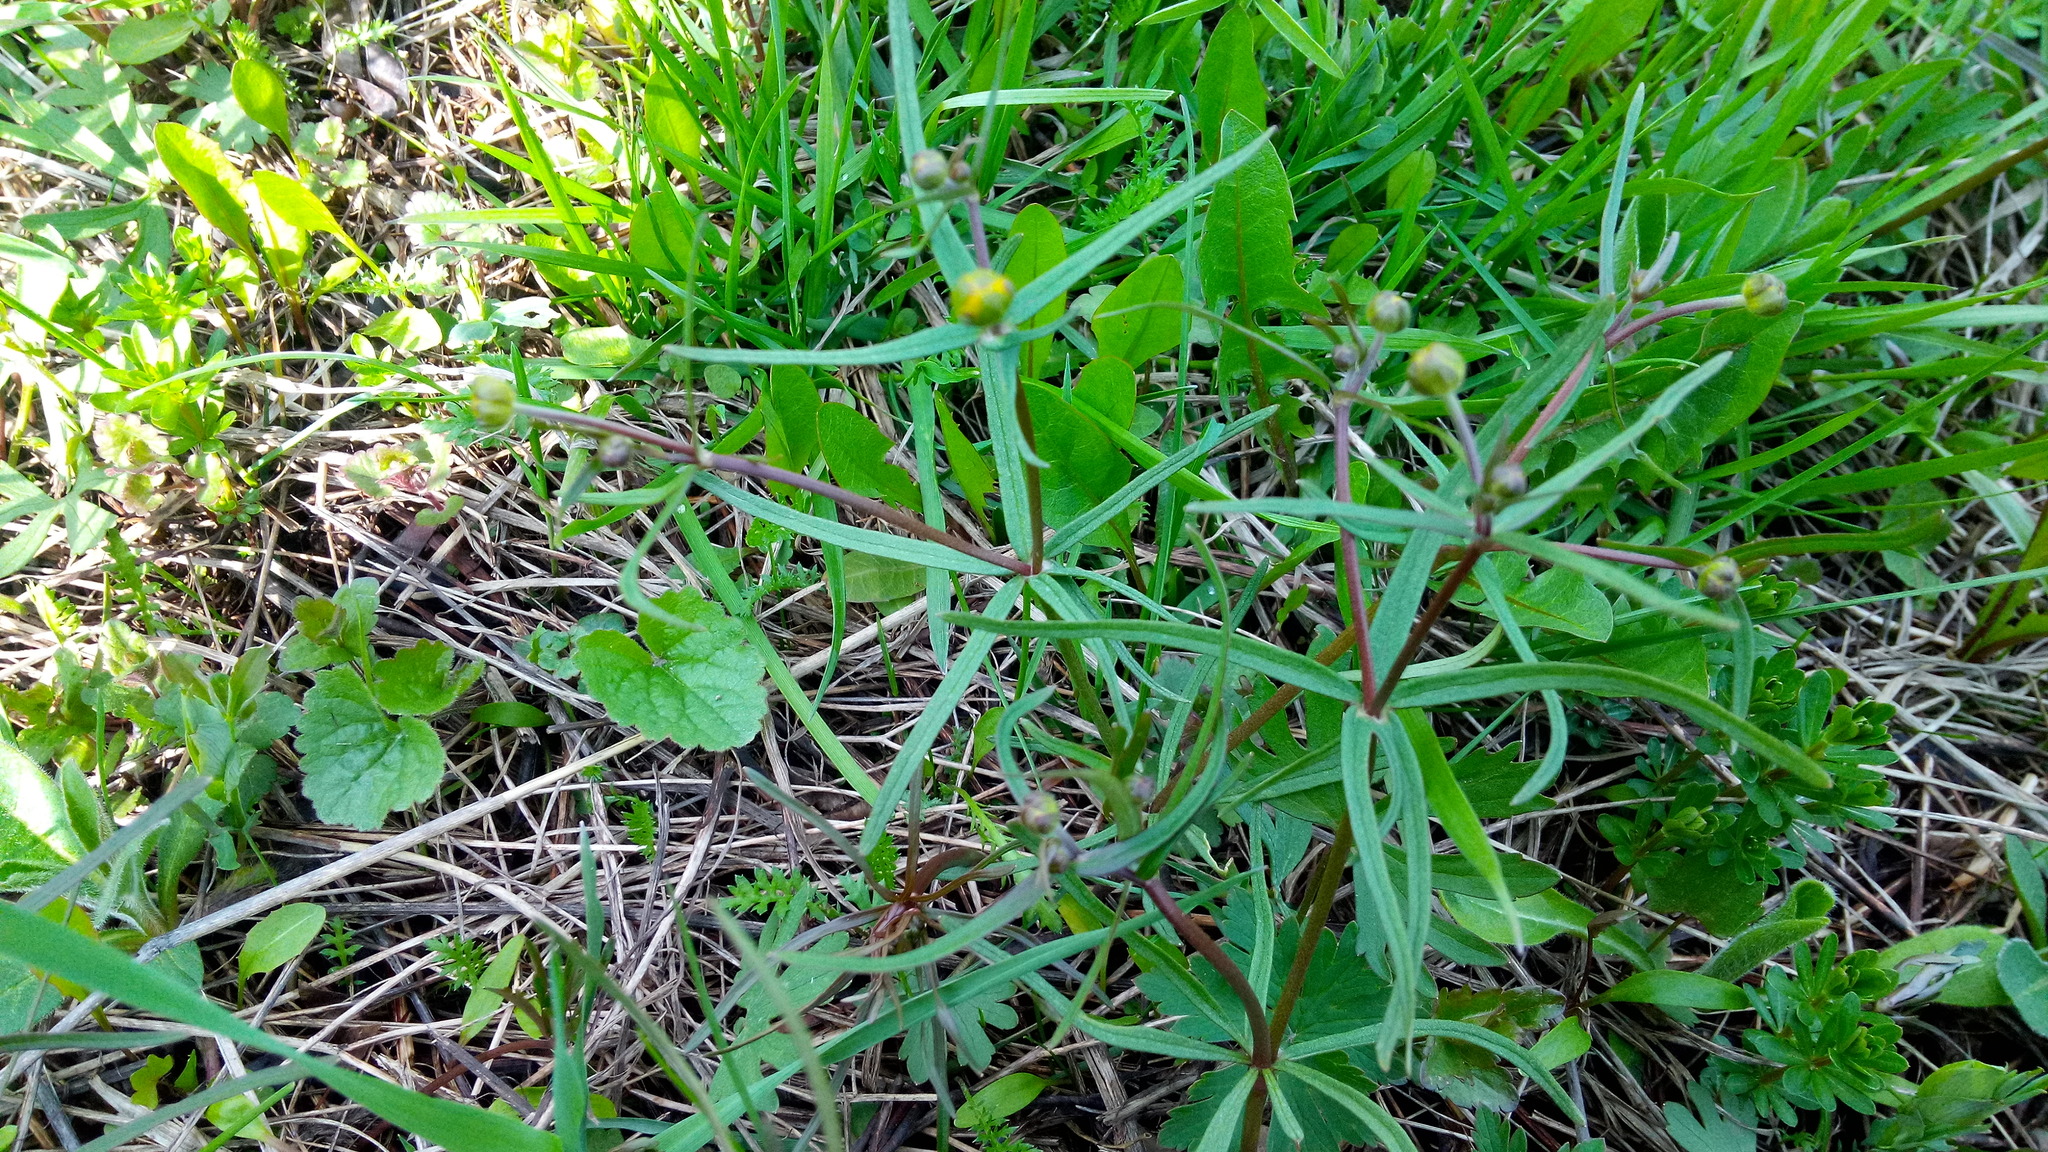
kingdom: Plantae
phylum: Tracheophyta
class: Magnoliopsida
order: Ranunculales
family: Ranunculaceae
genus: Ranunculus
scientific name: Ranunculus auricomus
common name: Goldilocks buttercup
